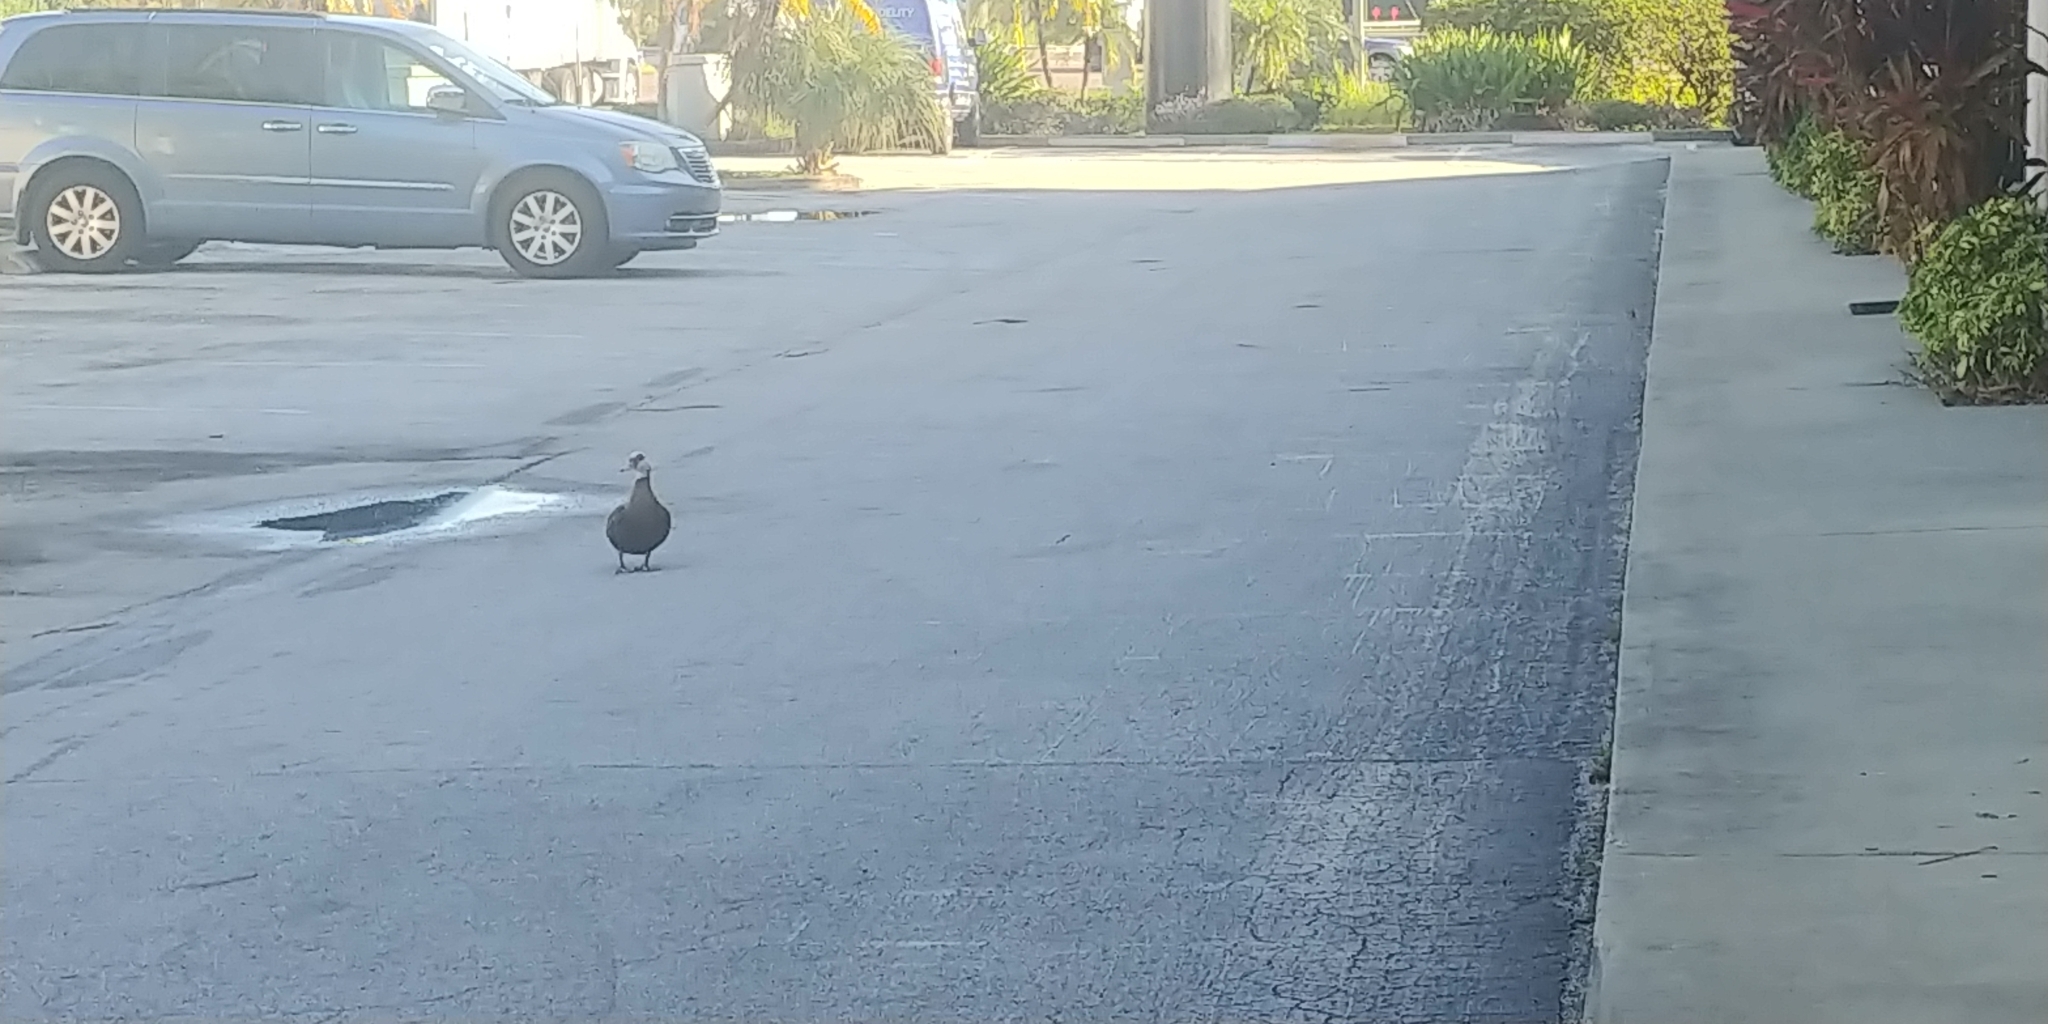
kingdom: Animalia
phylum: Chordata
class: Aves
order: Anseriformes
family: Anatidae
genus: Cairina
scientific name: Cairina moschata
